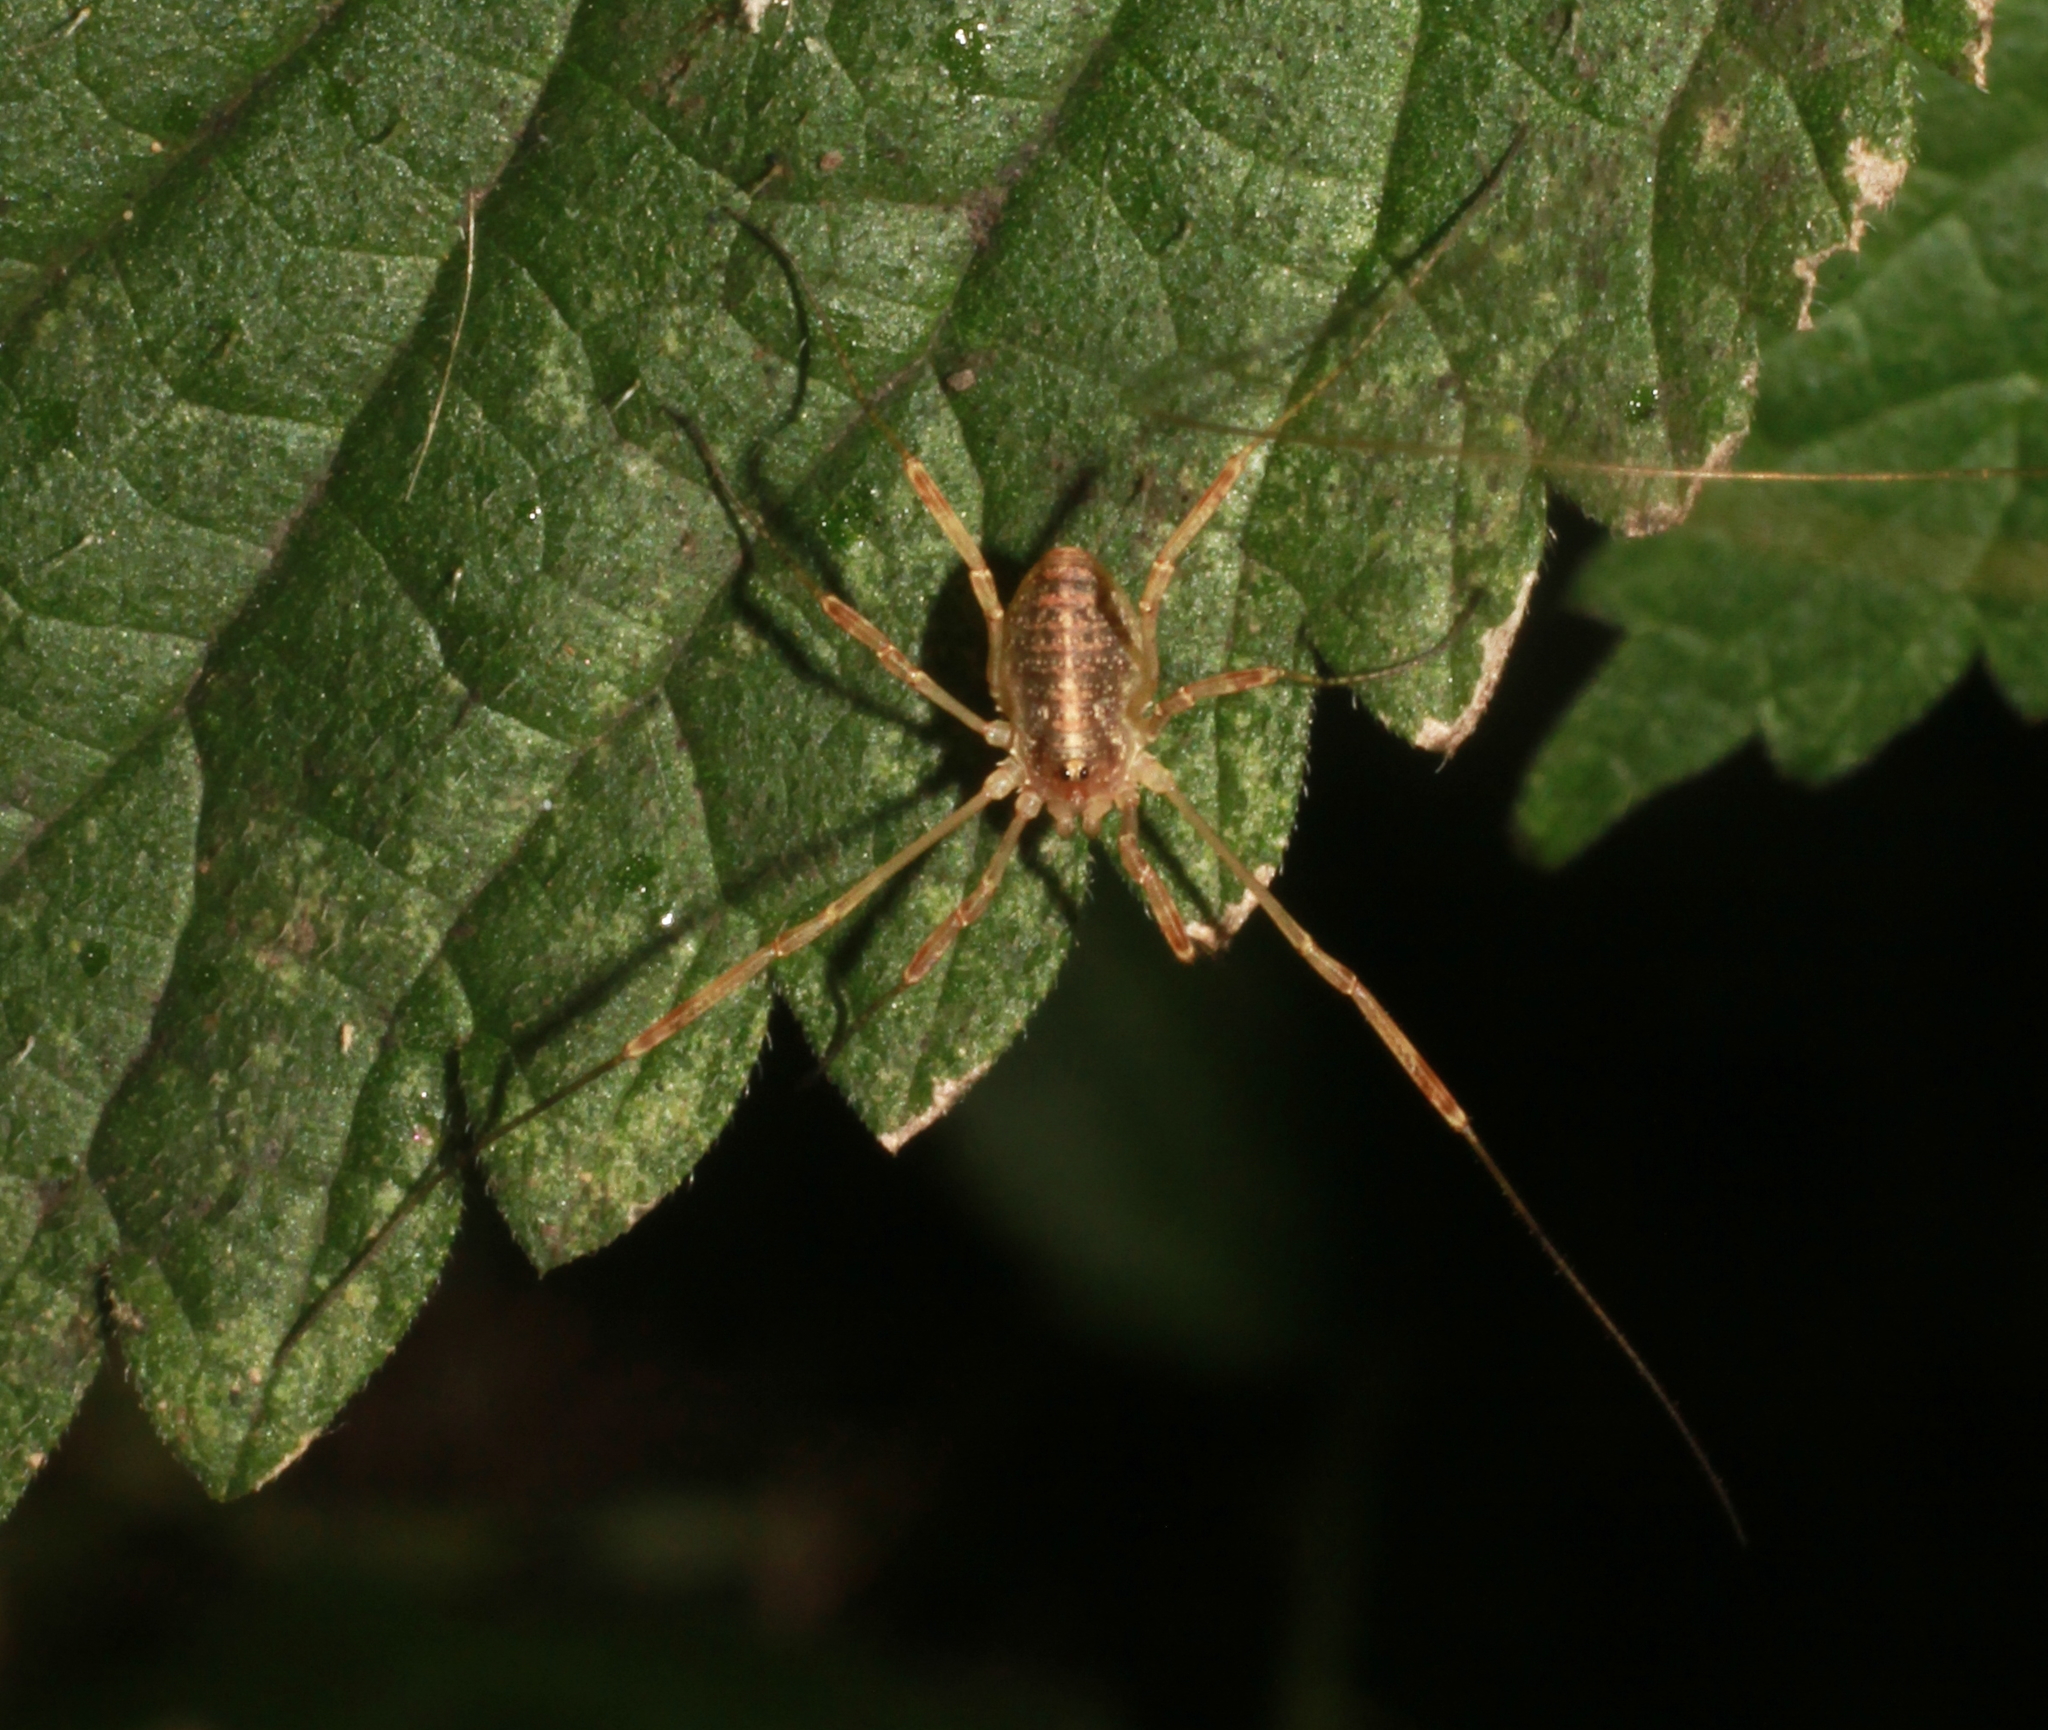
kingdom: Animalia
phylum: Arthropoda
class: Arachnida
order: Opiliones
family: Phalangiidae
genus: Paroligolophus
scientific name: Paroligolophus agrestis
